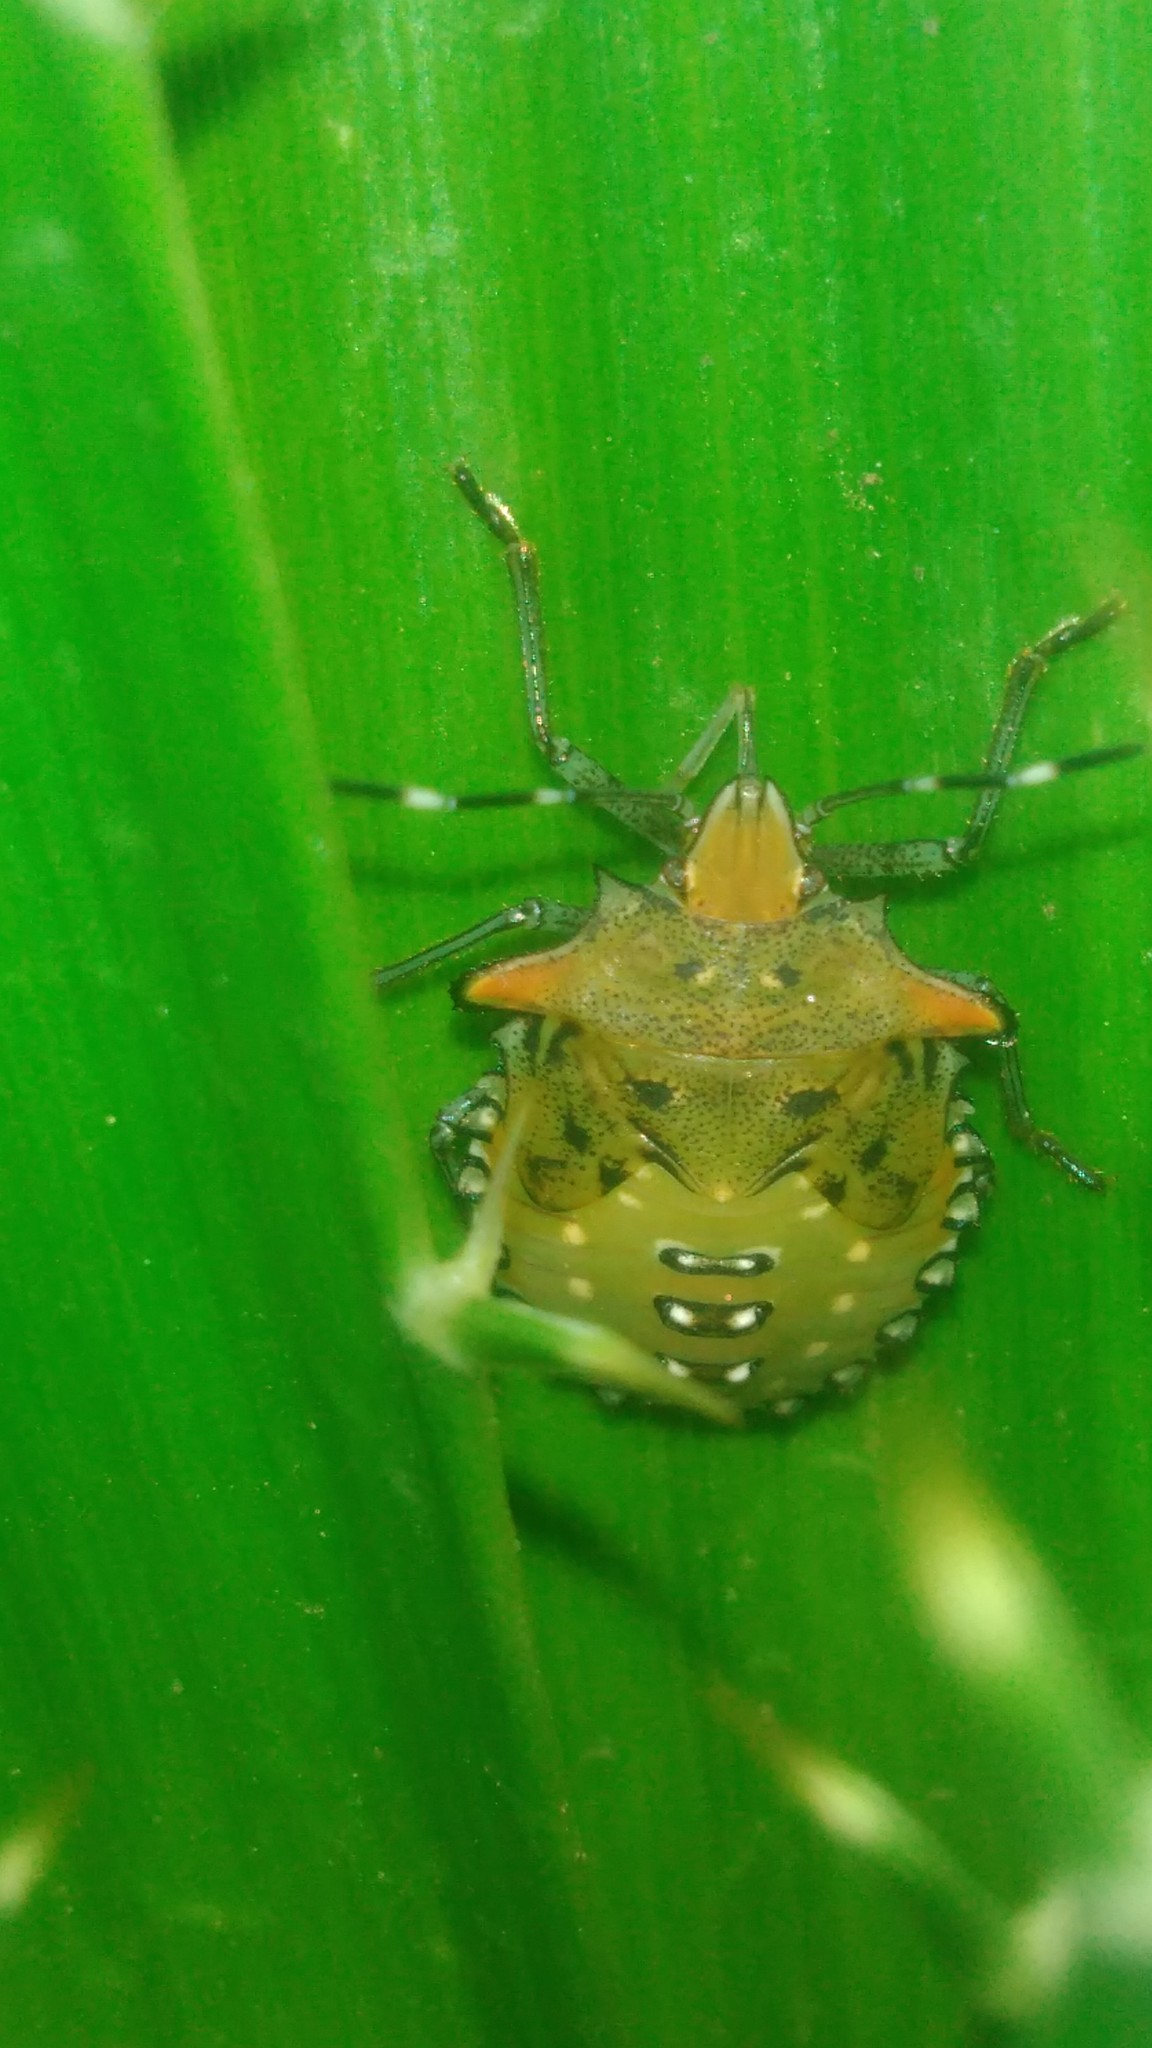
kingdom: Animalia
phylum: Arthropoda
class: Insecta
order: Hemiptera
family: Pentatomidae
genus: Arvelius
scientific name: Arvelius albopunctatus
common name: Tomato stink bug
